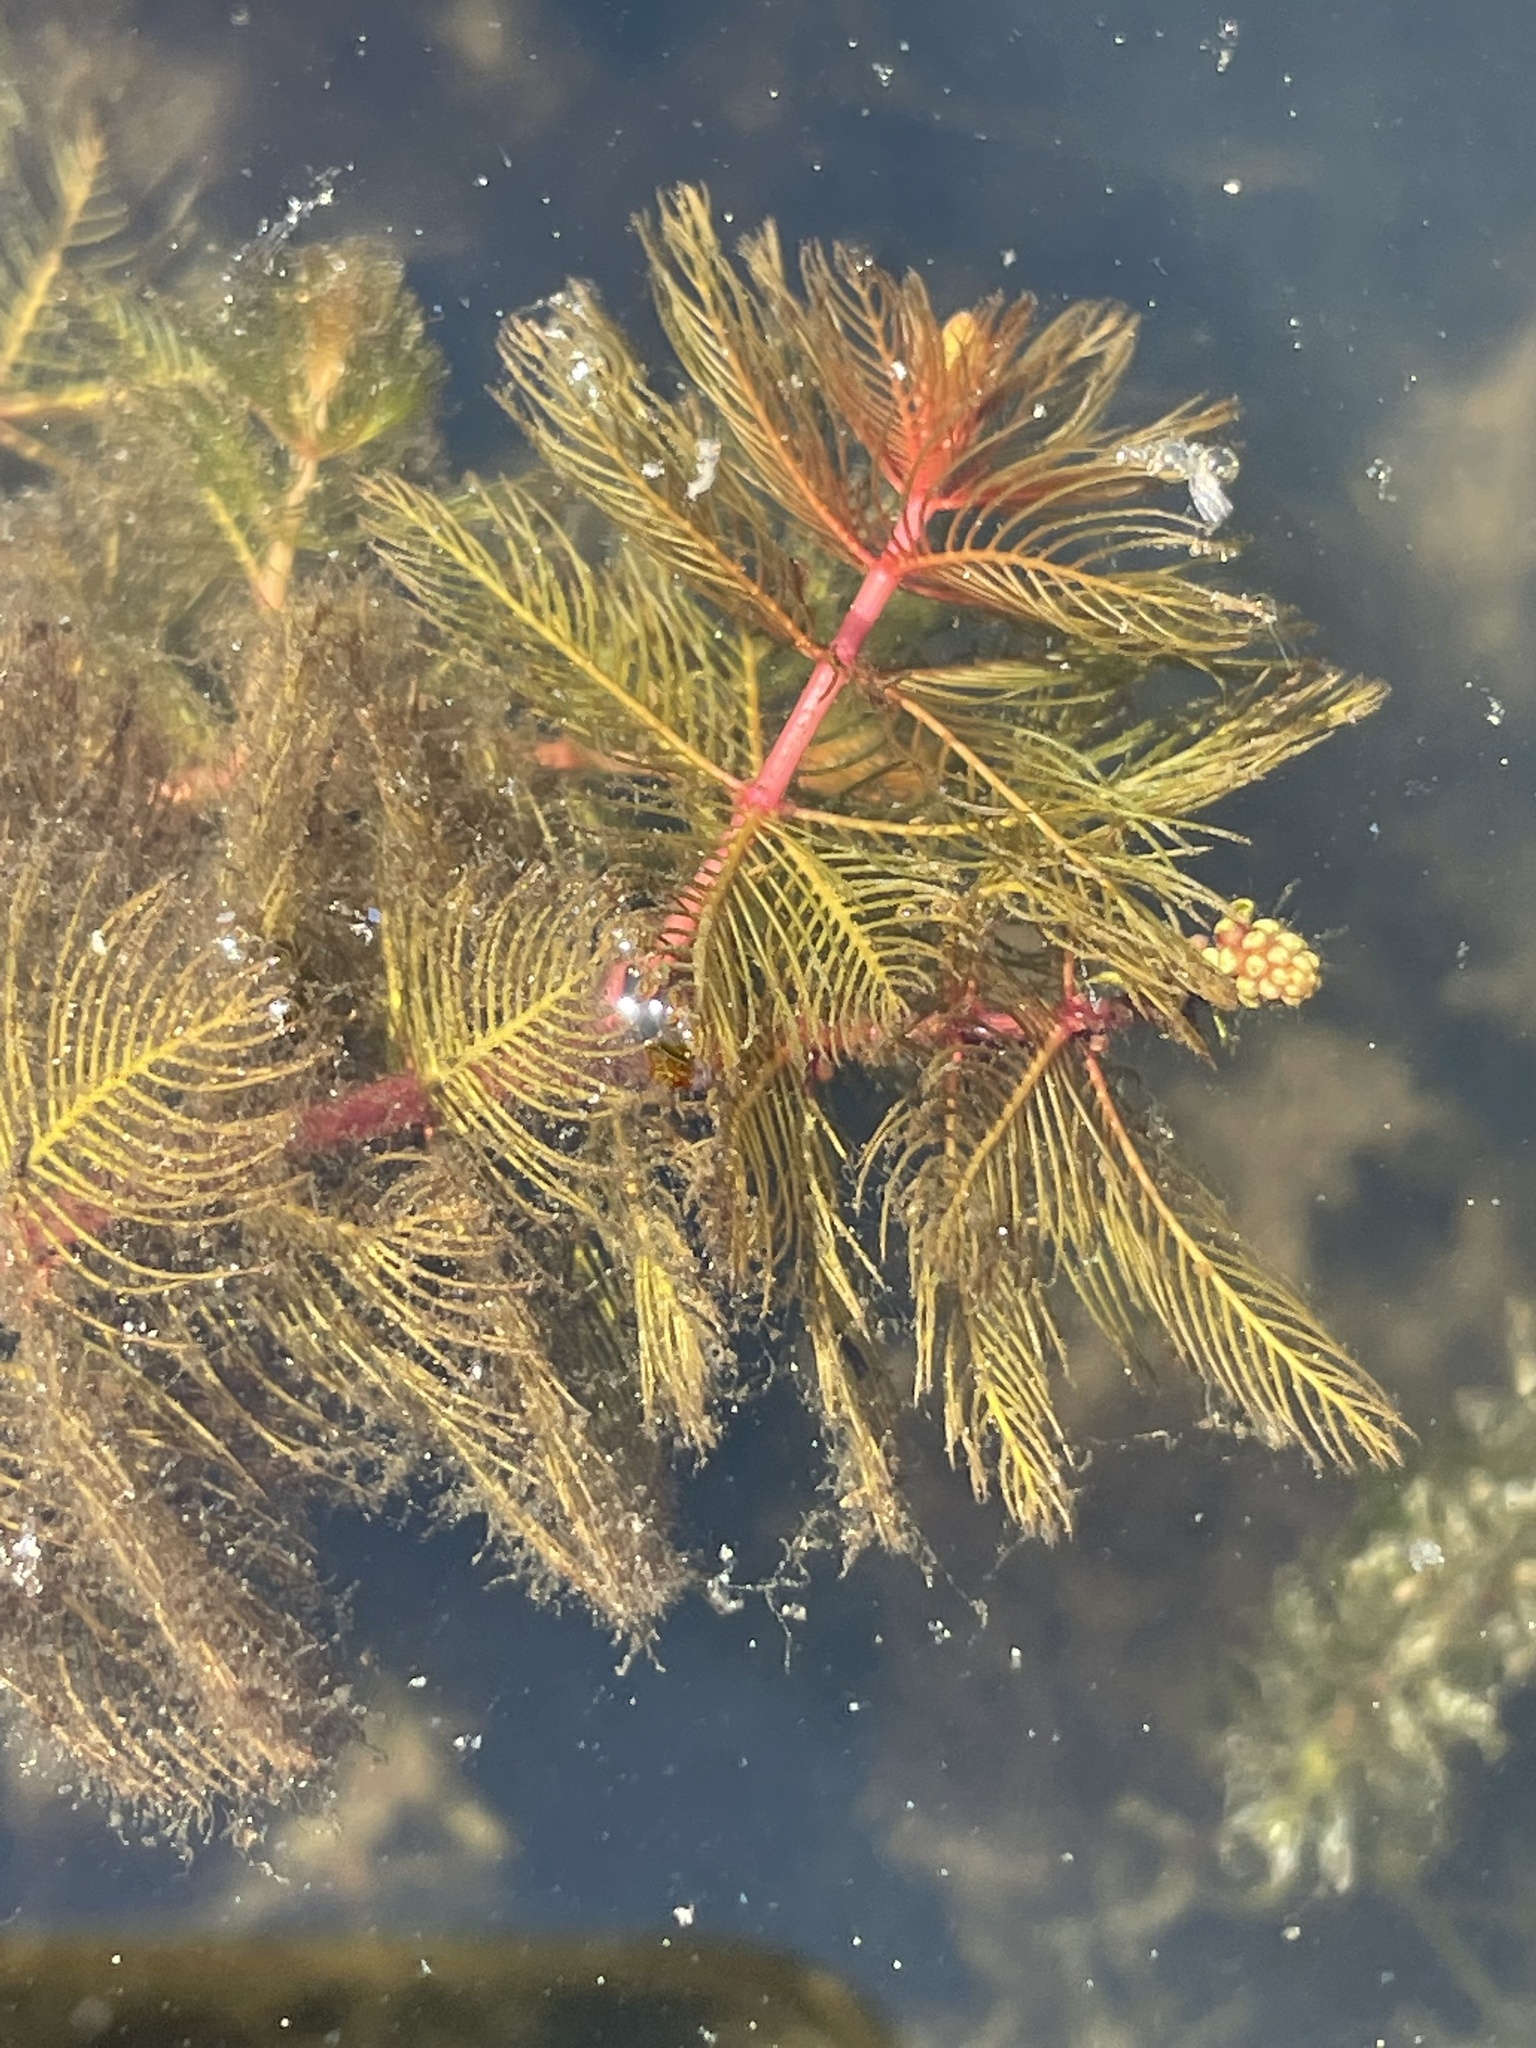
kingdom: Plantae
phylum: Tracheophyta
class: Magnoliopsida
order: Saxifragales
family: Haloragaceae
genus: Myriophyllum
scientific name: Myriophyllum spicatum
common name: Spiked water-milfoil
